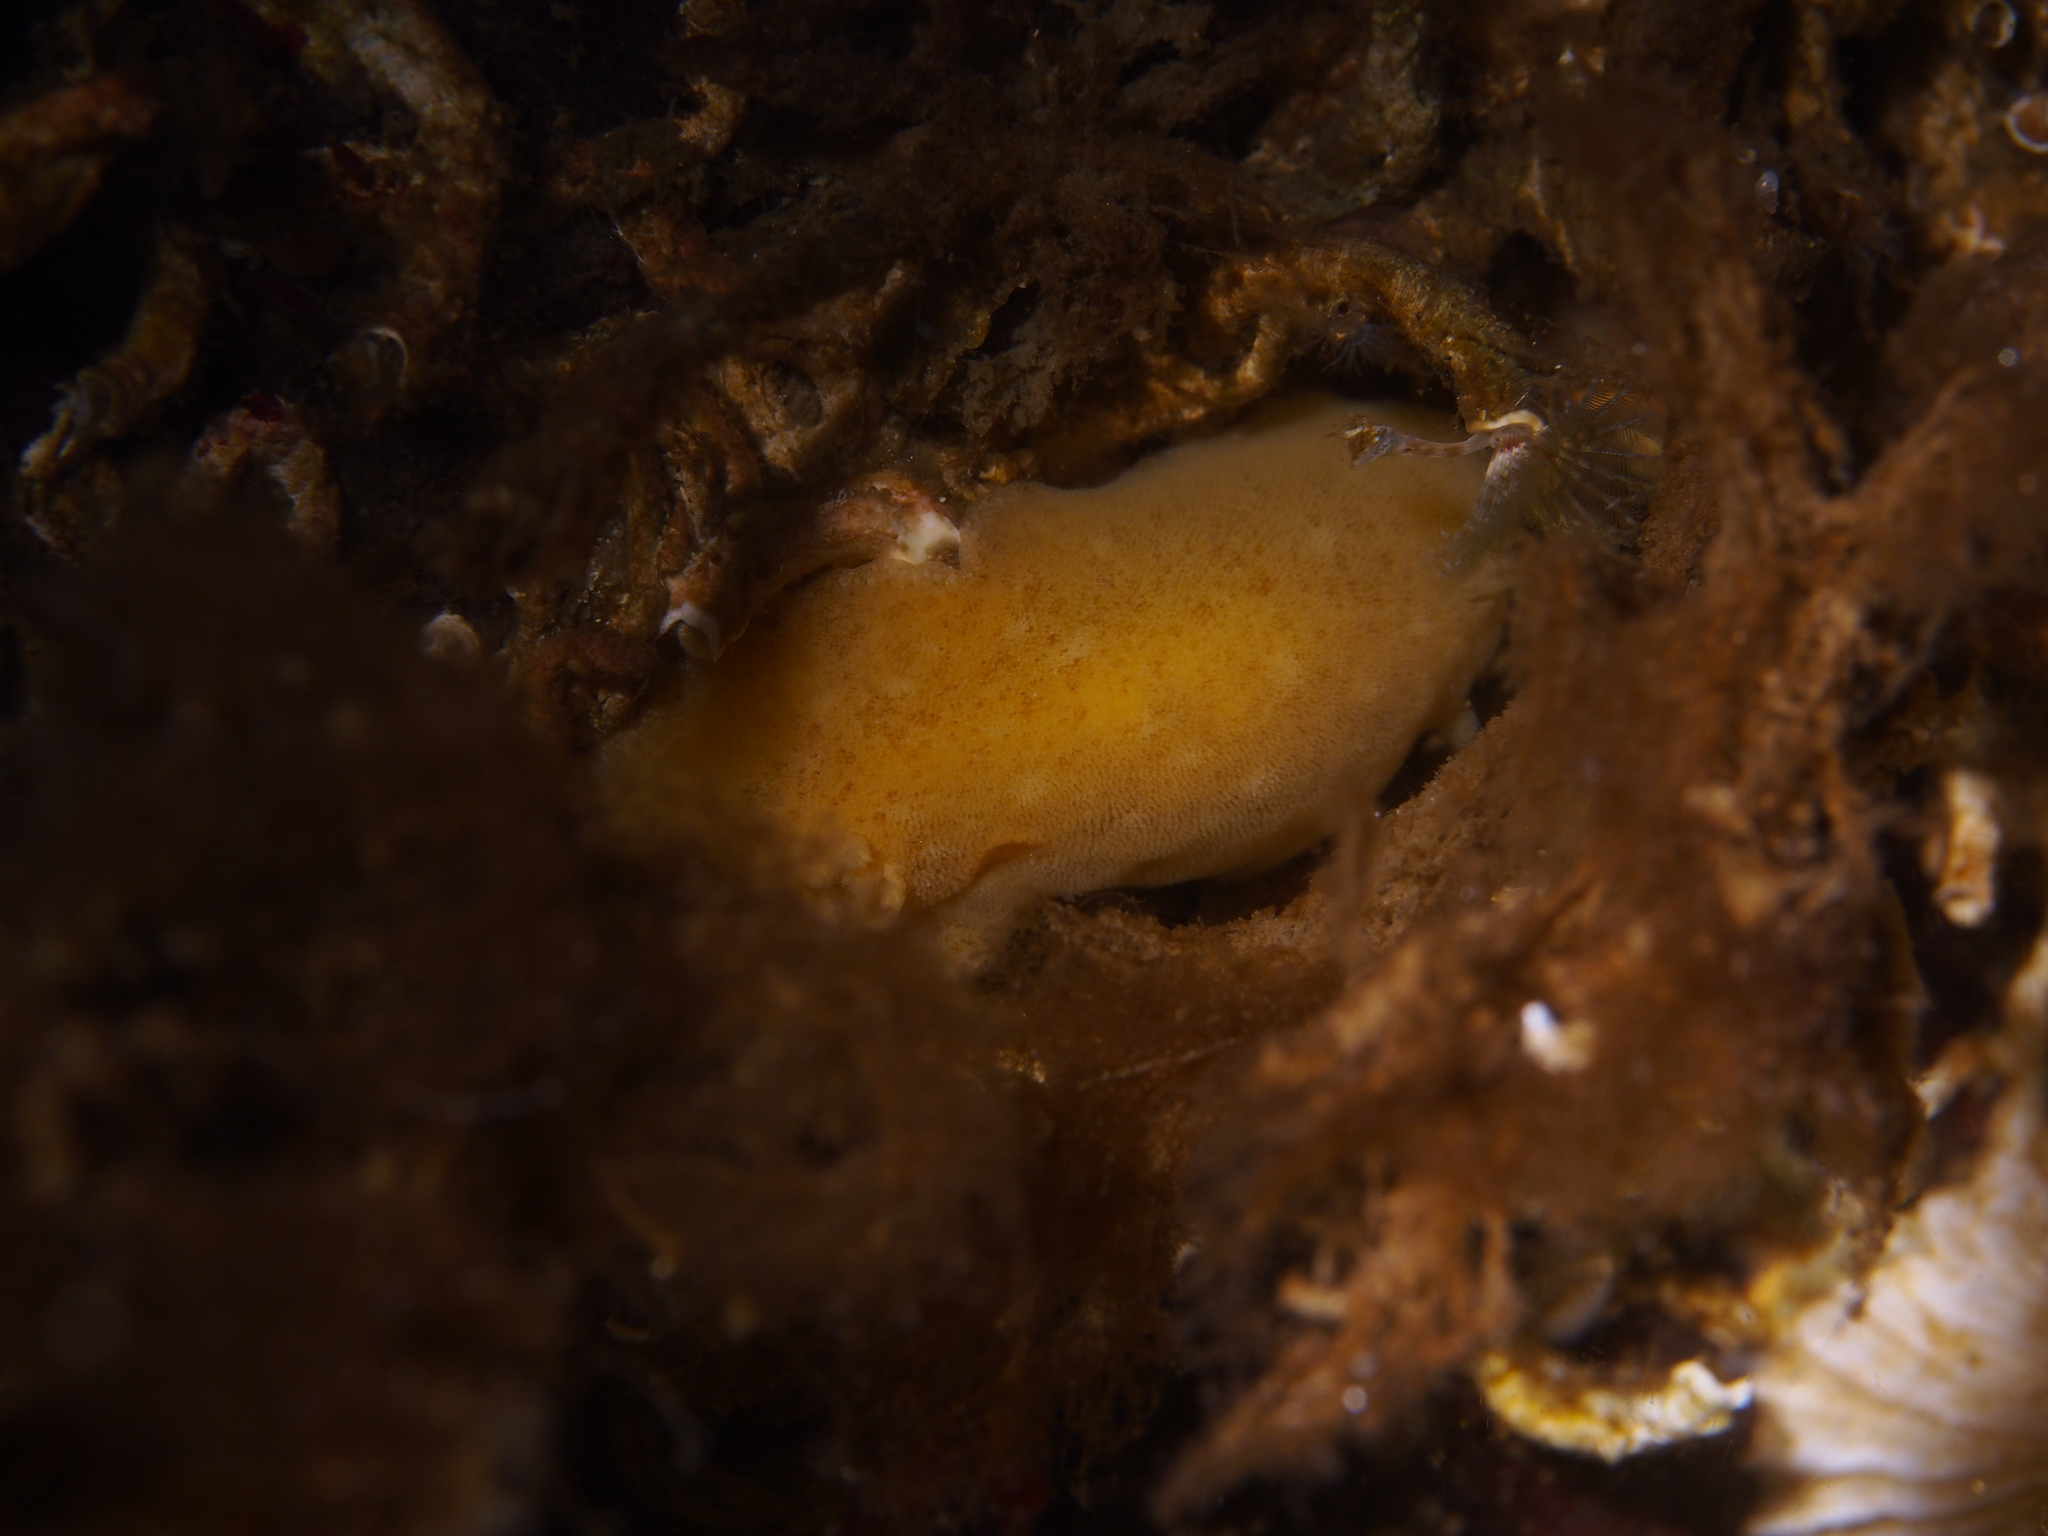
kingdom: Animalia
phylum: Mollusca
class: Gastropoda
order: Nudibranchia
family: Discodorididae
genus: Jorunna
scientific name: Jorunna tomentosa
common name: Grey sea slug
